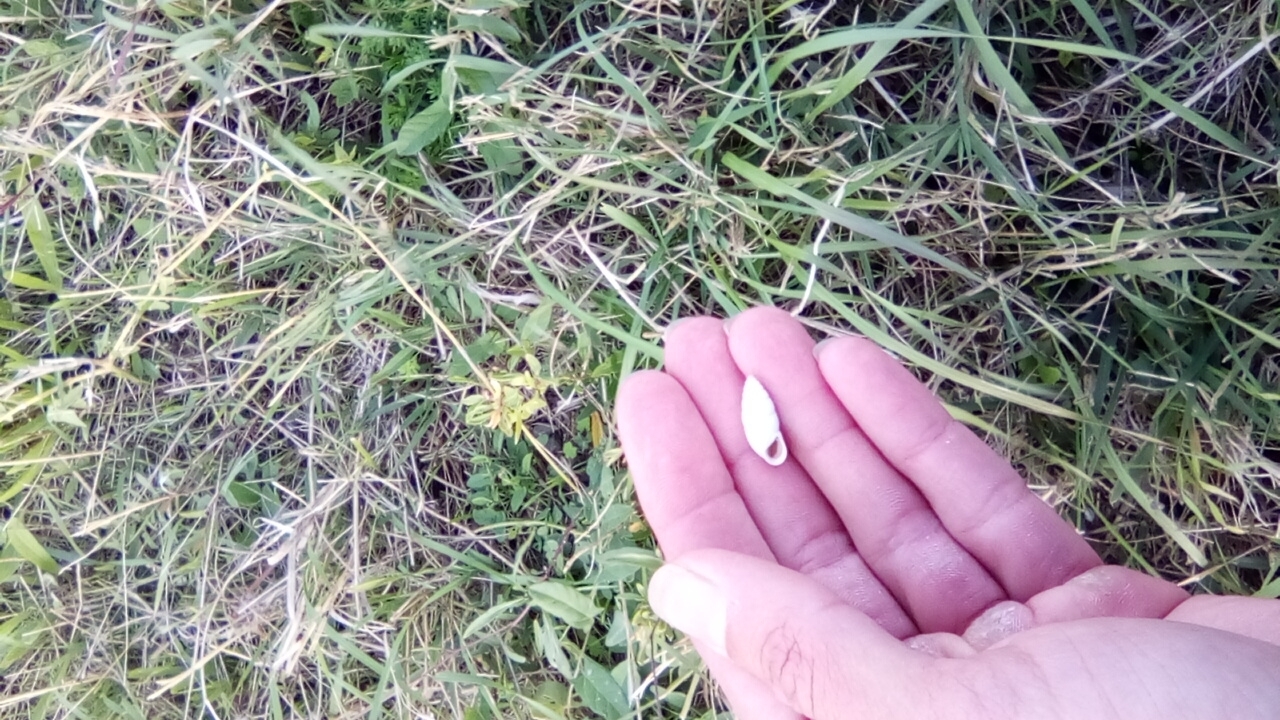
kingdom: Animalia
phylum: Mollusca
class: Gastropoda
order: Stylommatophora
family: Enidae
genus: Brephulopsis
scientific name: Brephulopsis cylindrica
